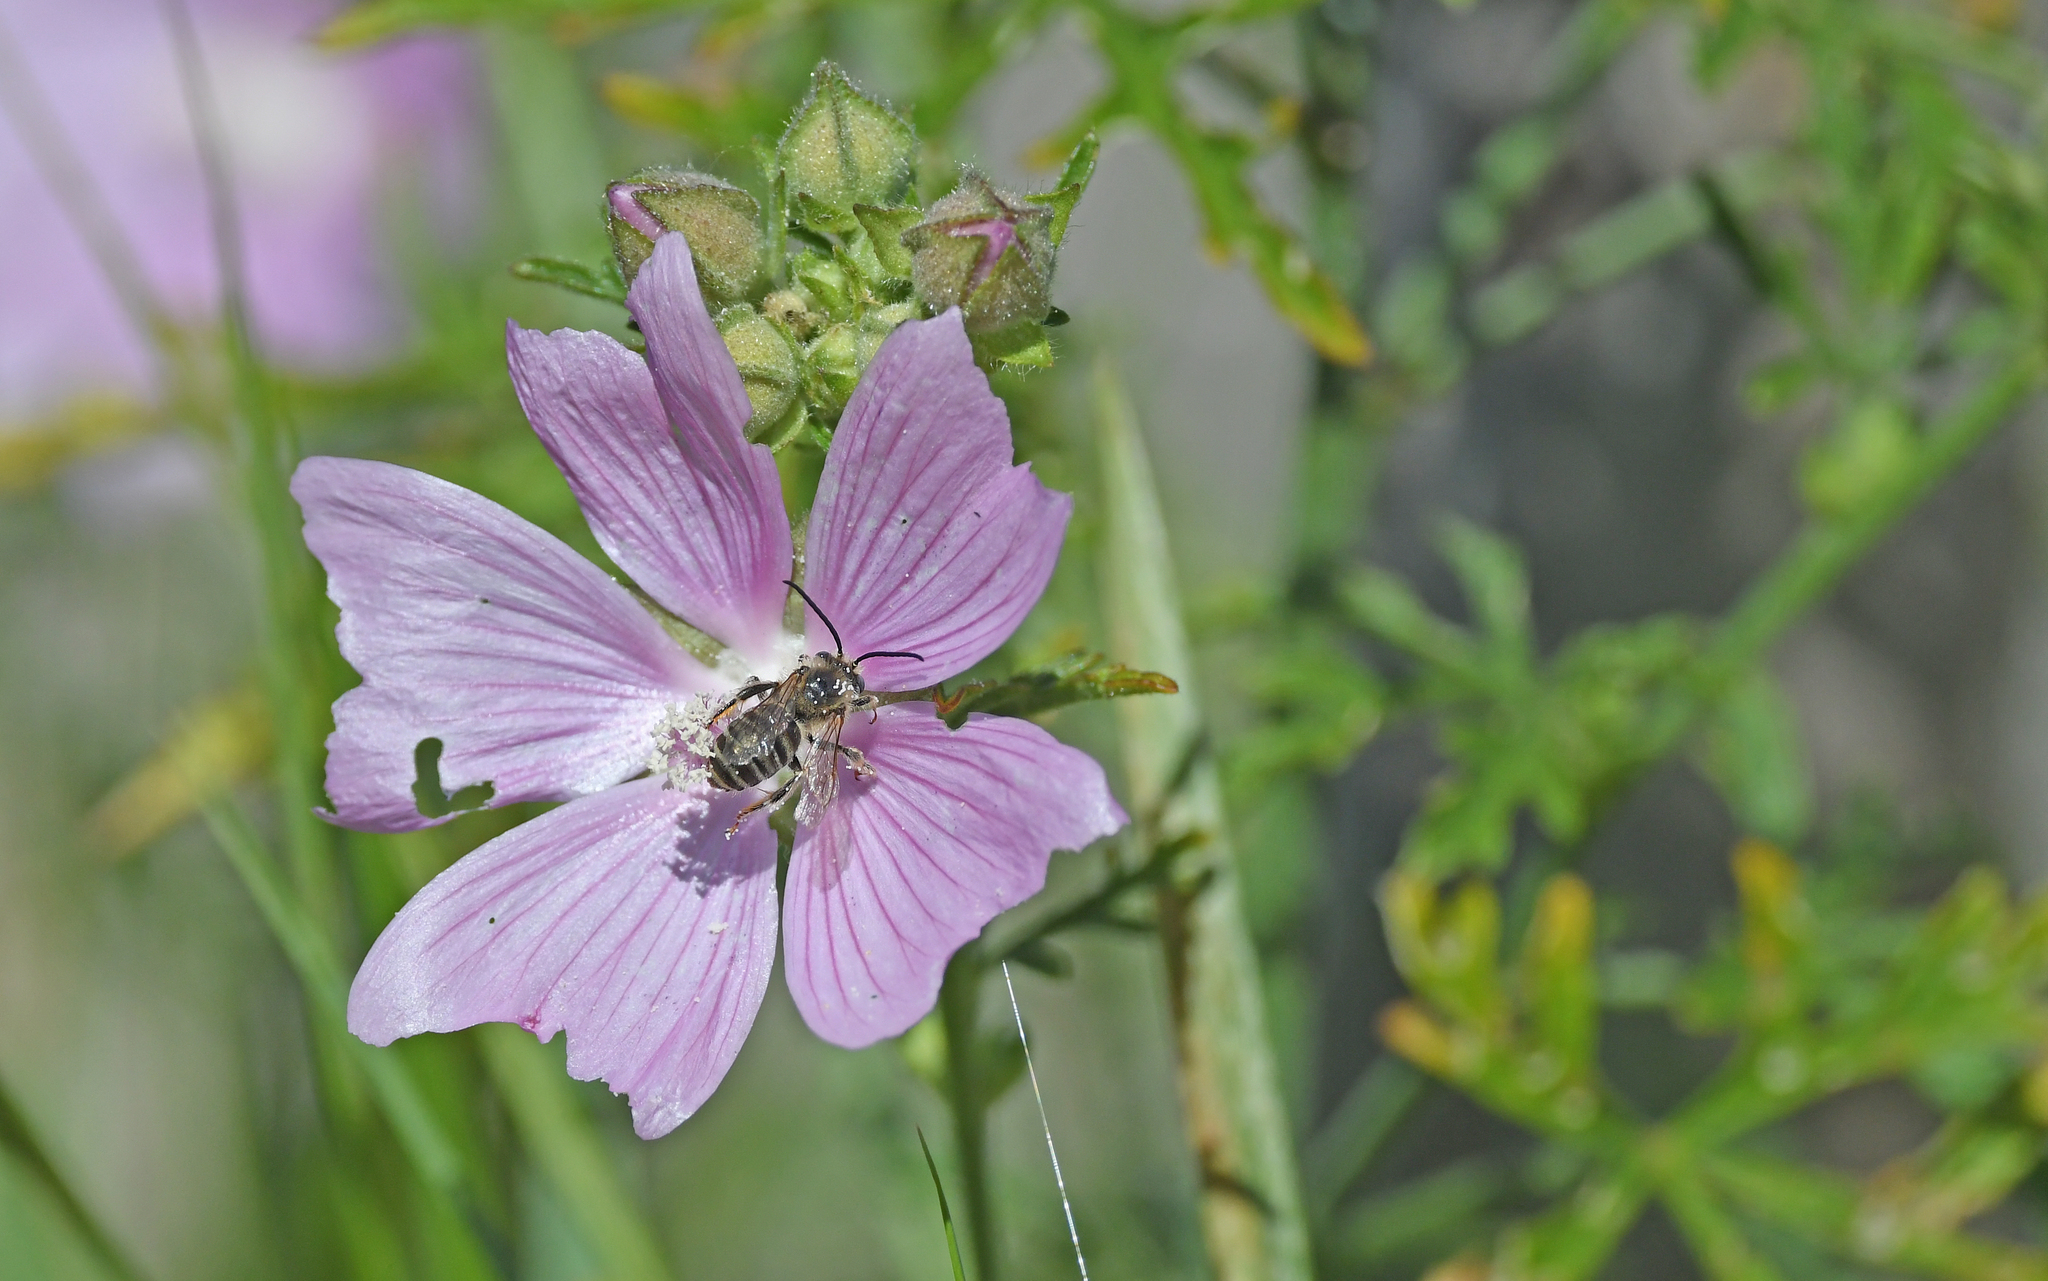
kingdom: Animalia
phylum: Arthropoda
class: Insecta
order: Hymenoptera
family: Apidae
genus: Tetralonia
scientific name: Tetralonia malvae
